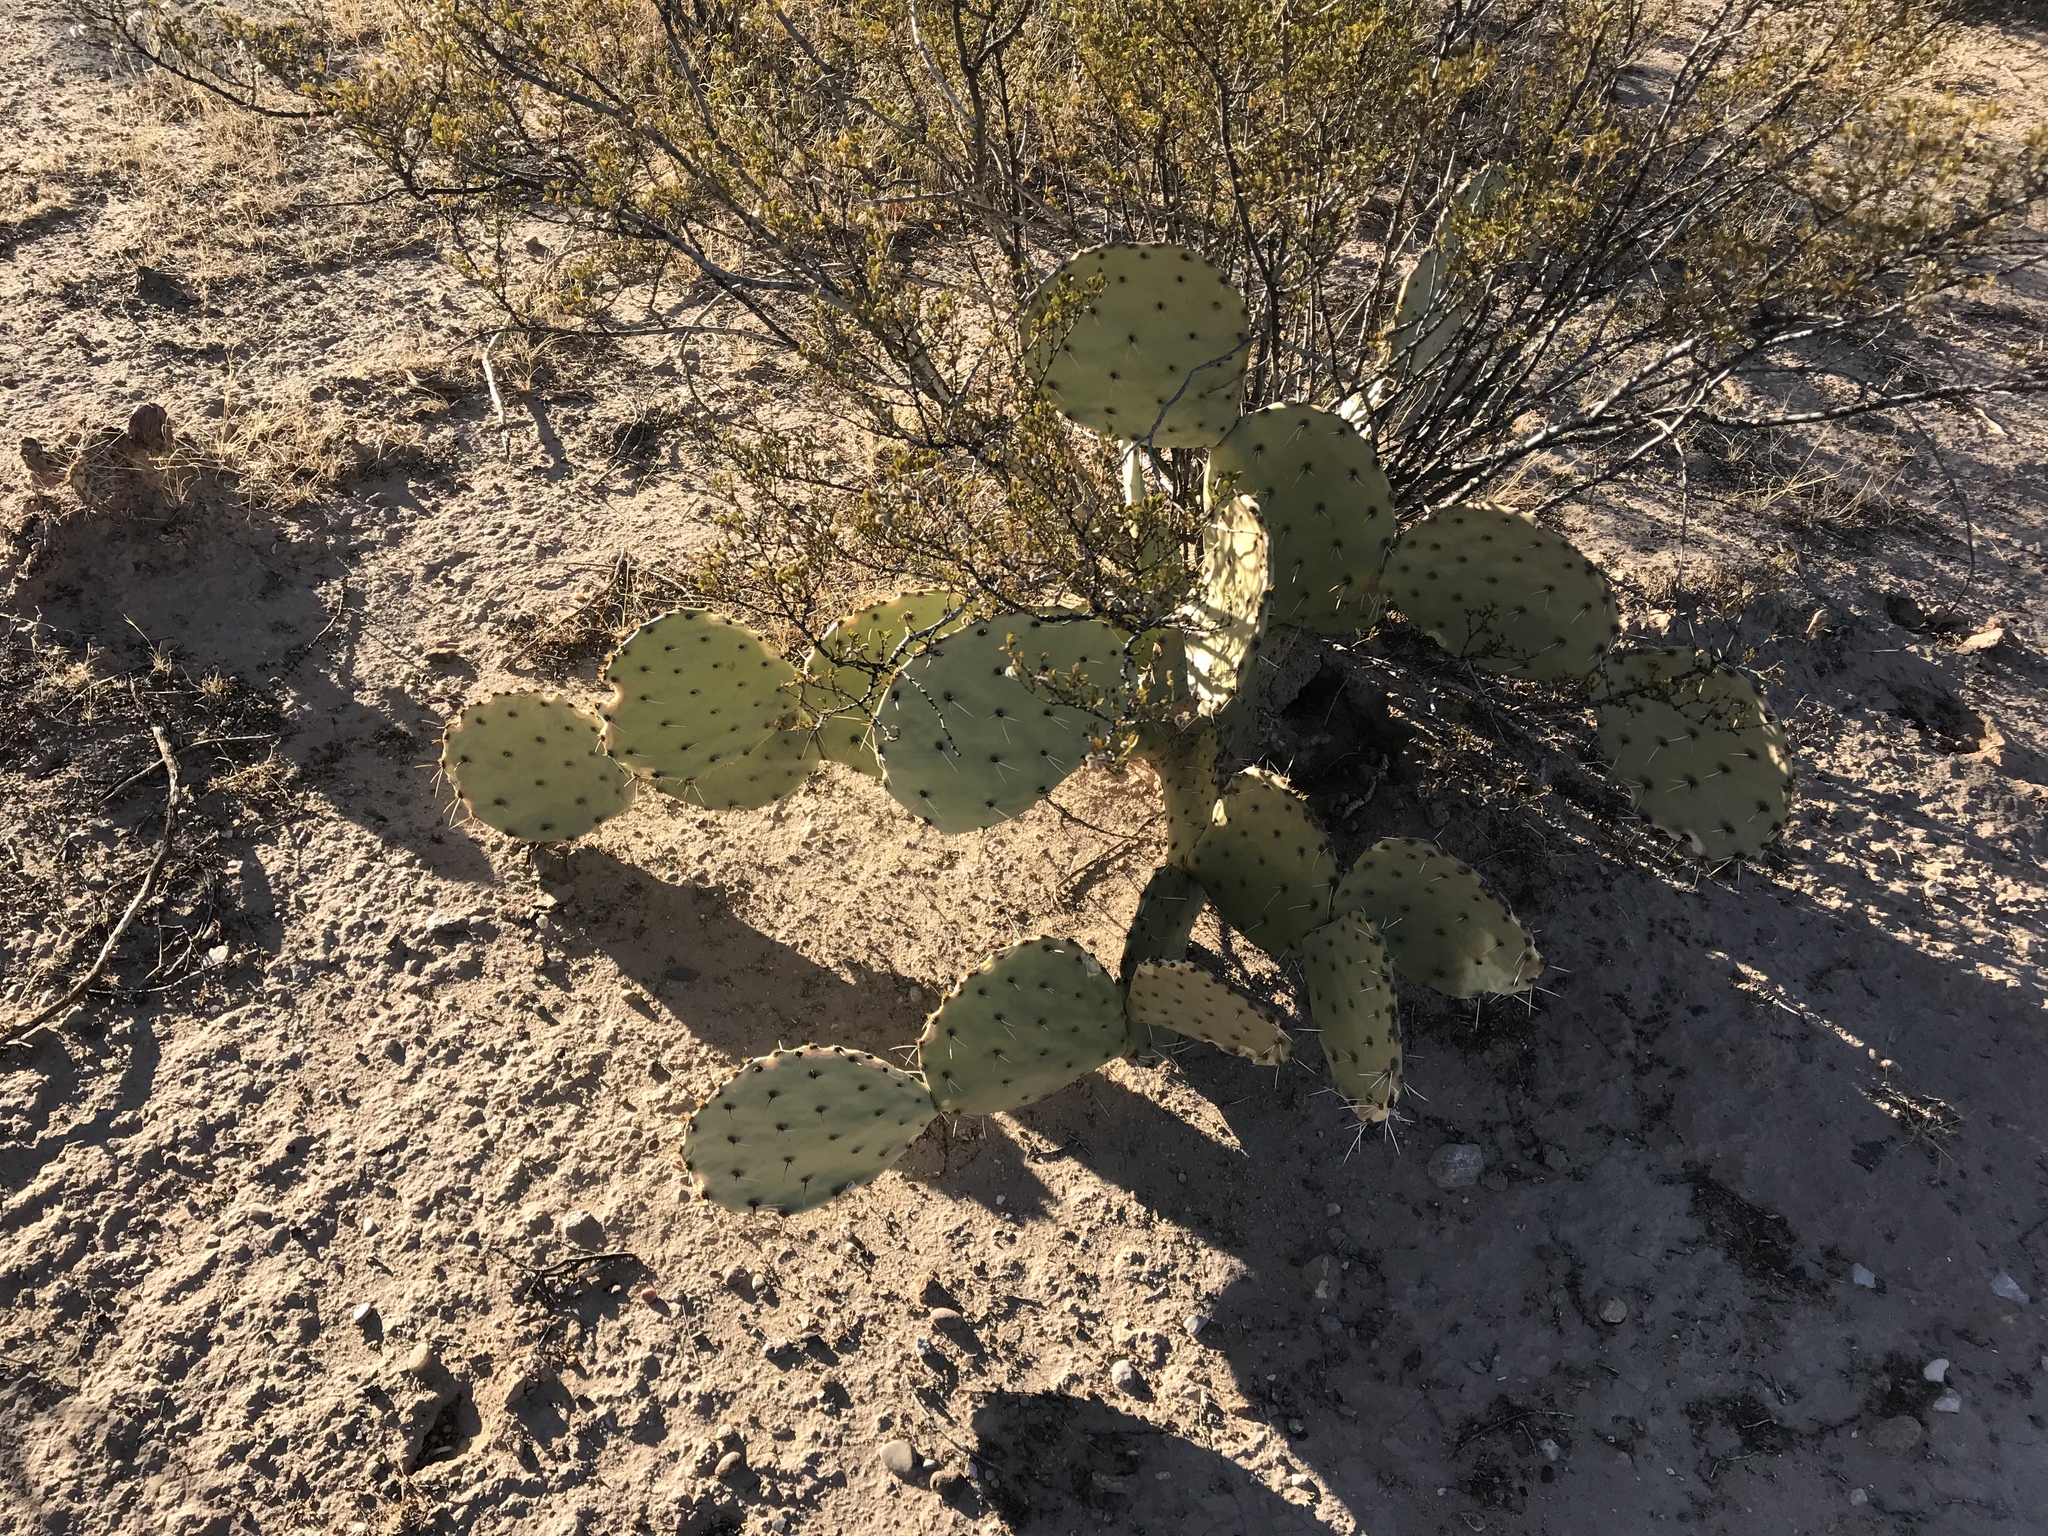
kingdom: Plantae
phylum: Tracheophyta
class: Magnoliopsida
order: Caryophyllales
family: Cactaceae
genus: Opuntia
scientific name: Opuntia engelmannii
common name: Cactus-apple
